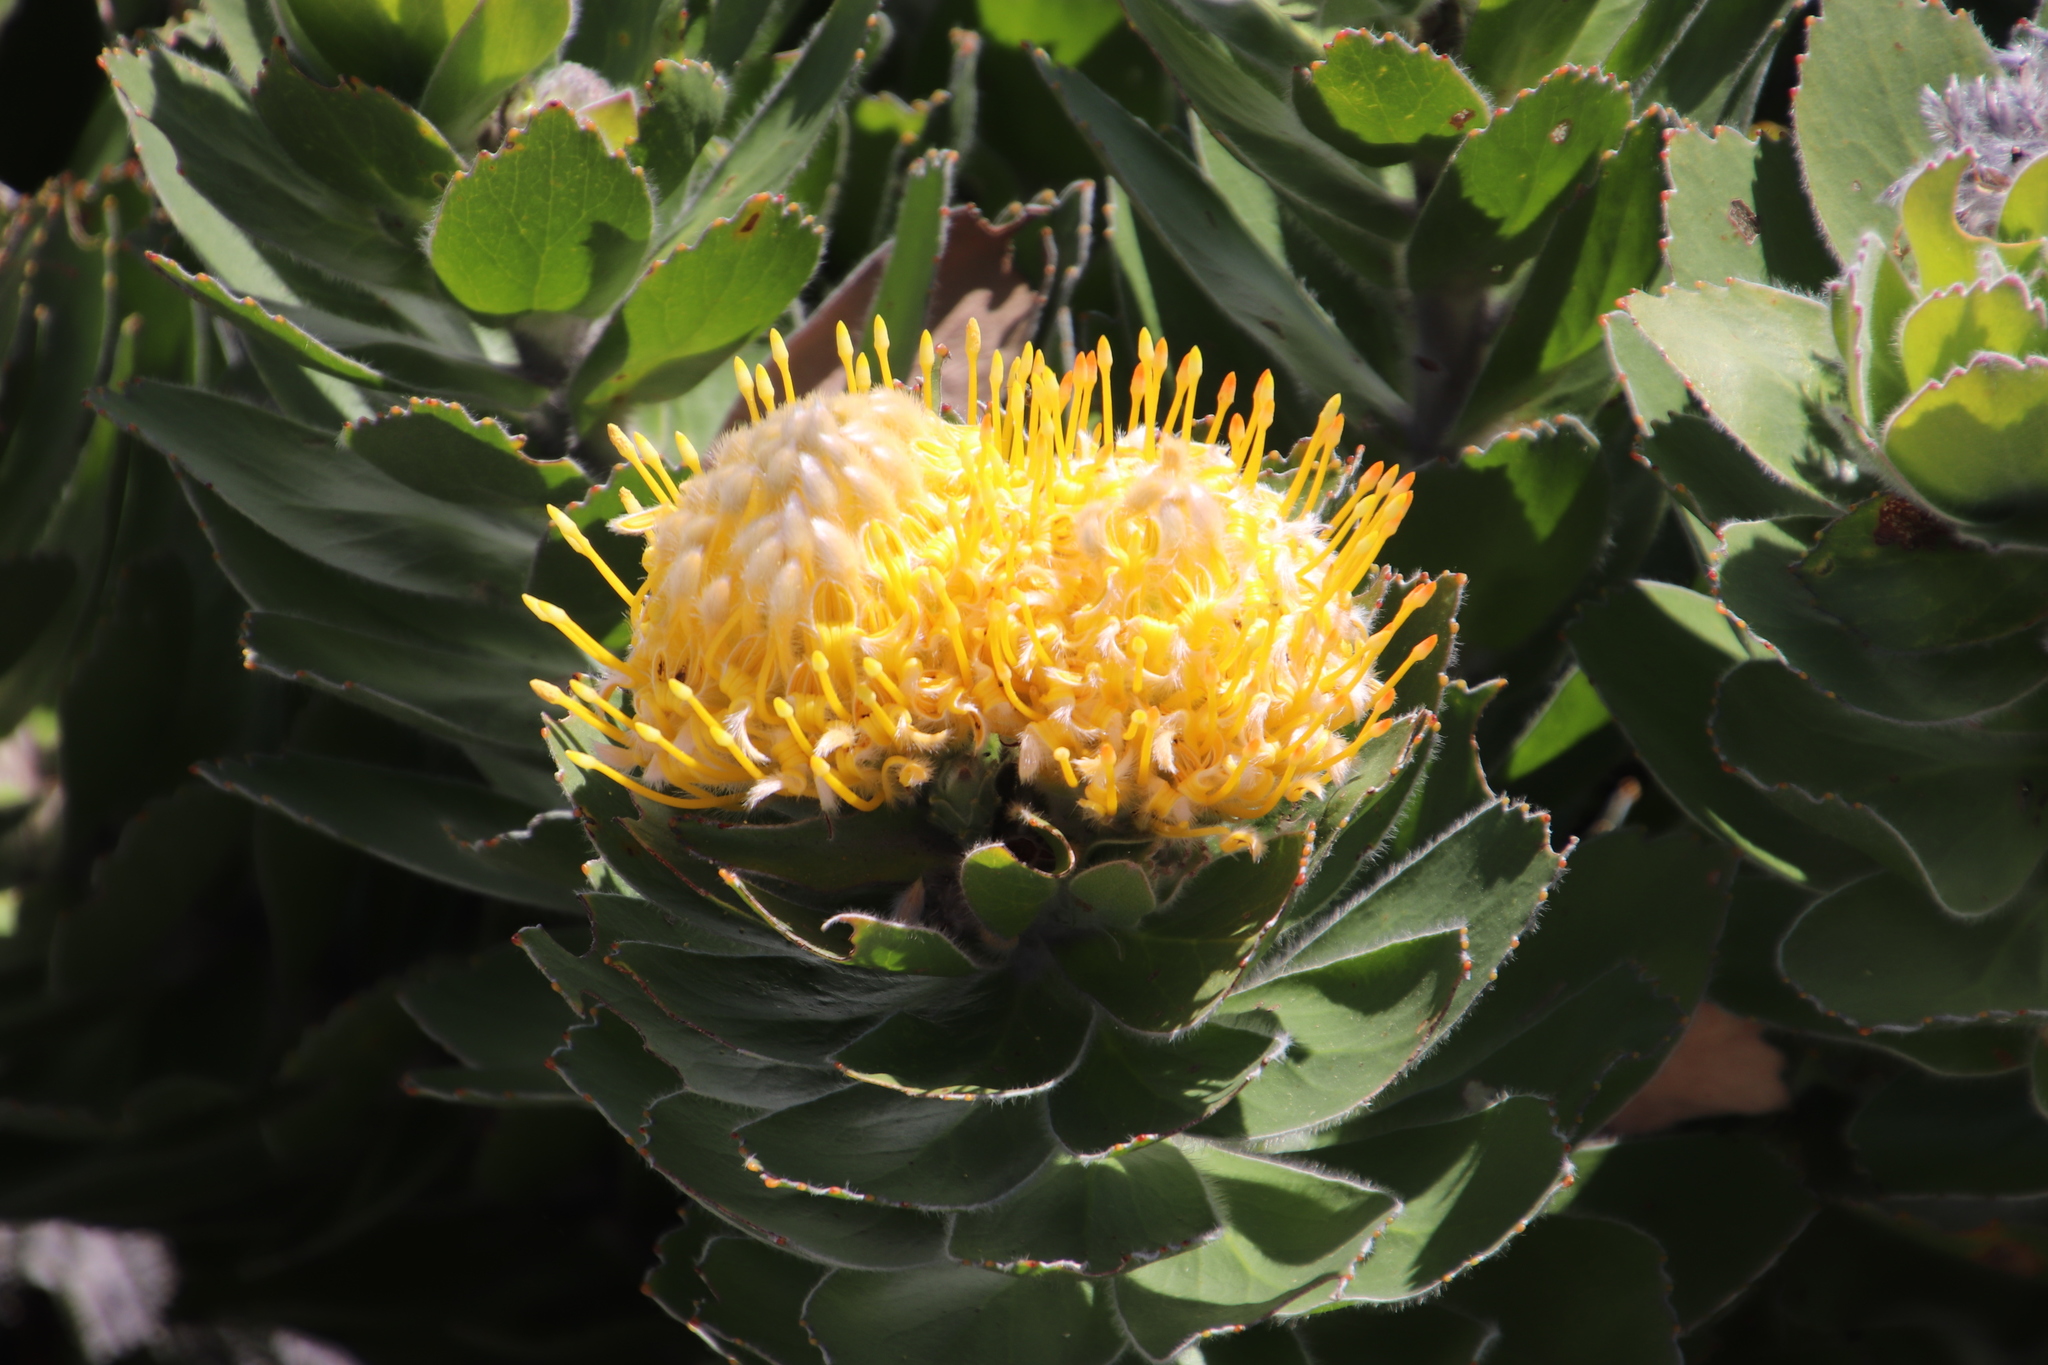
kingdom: Plantae
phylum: Tracheophyta
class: Magnoliopsida
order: Proteales
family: Proteaceae
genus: Leucospermum
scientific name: Leucospermum conocarpodendron
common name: Tree pincushion
